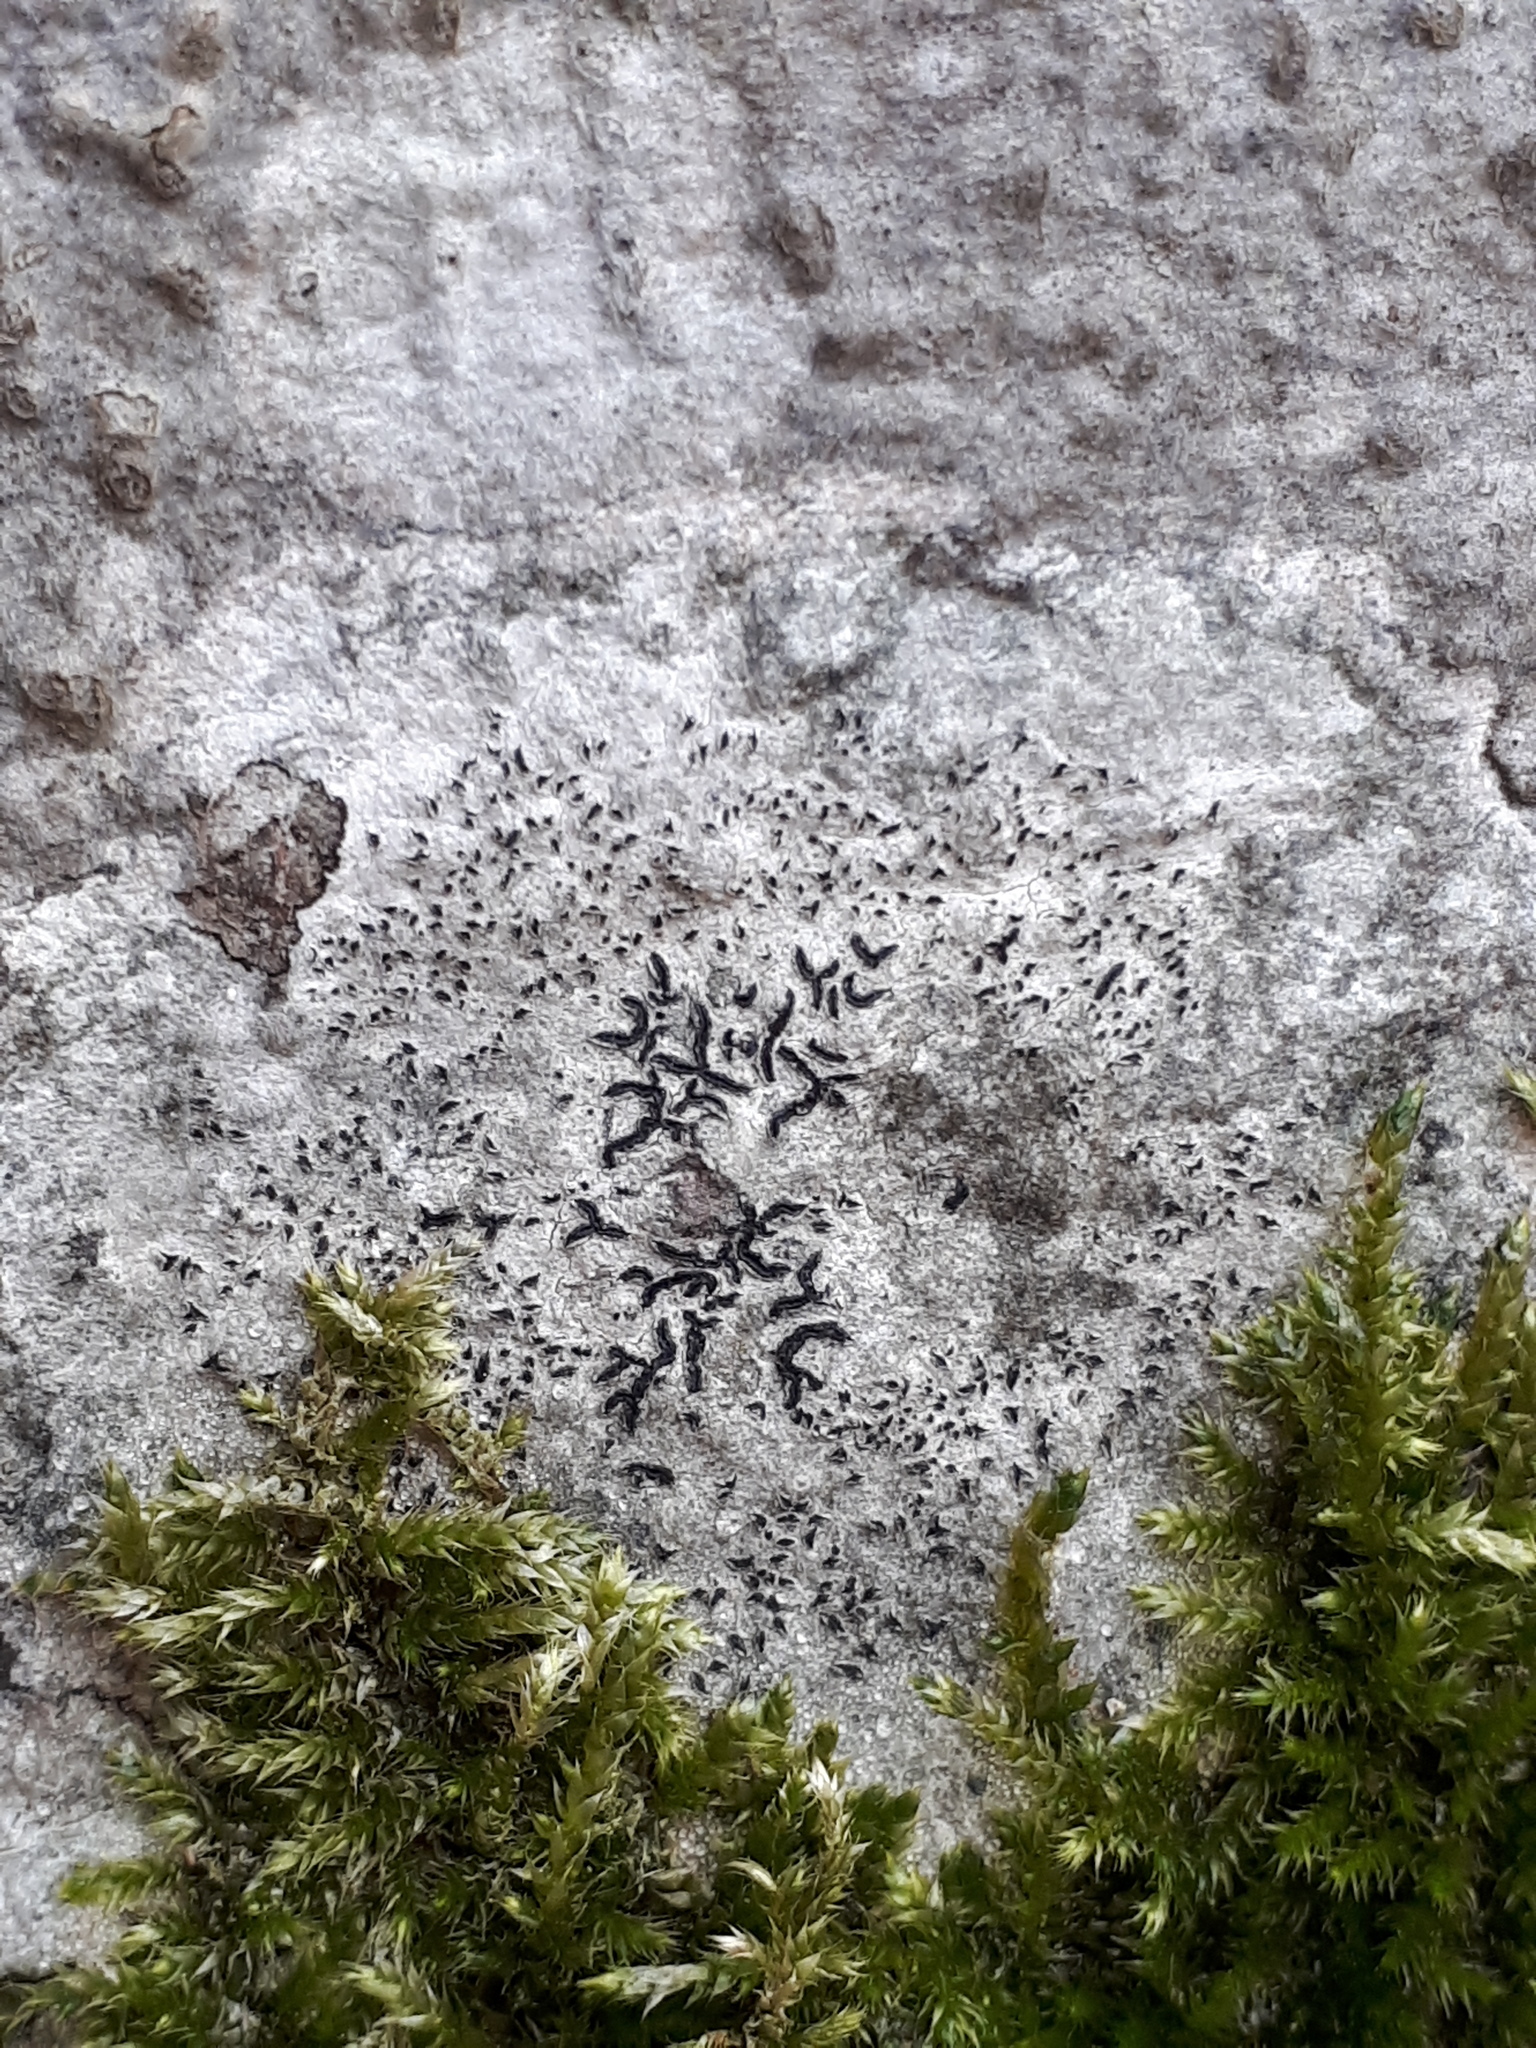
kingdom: Fungi
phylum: Ascomycota
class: Lecanoromycetes
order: Ostropales
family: Graphidaceae
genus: Graphis
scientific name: Graphis scripta
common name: Script lichen
